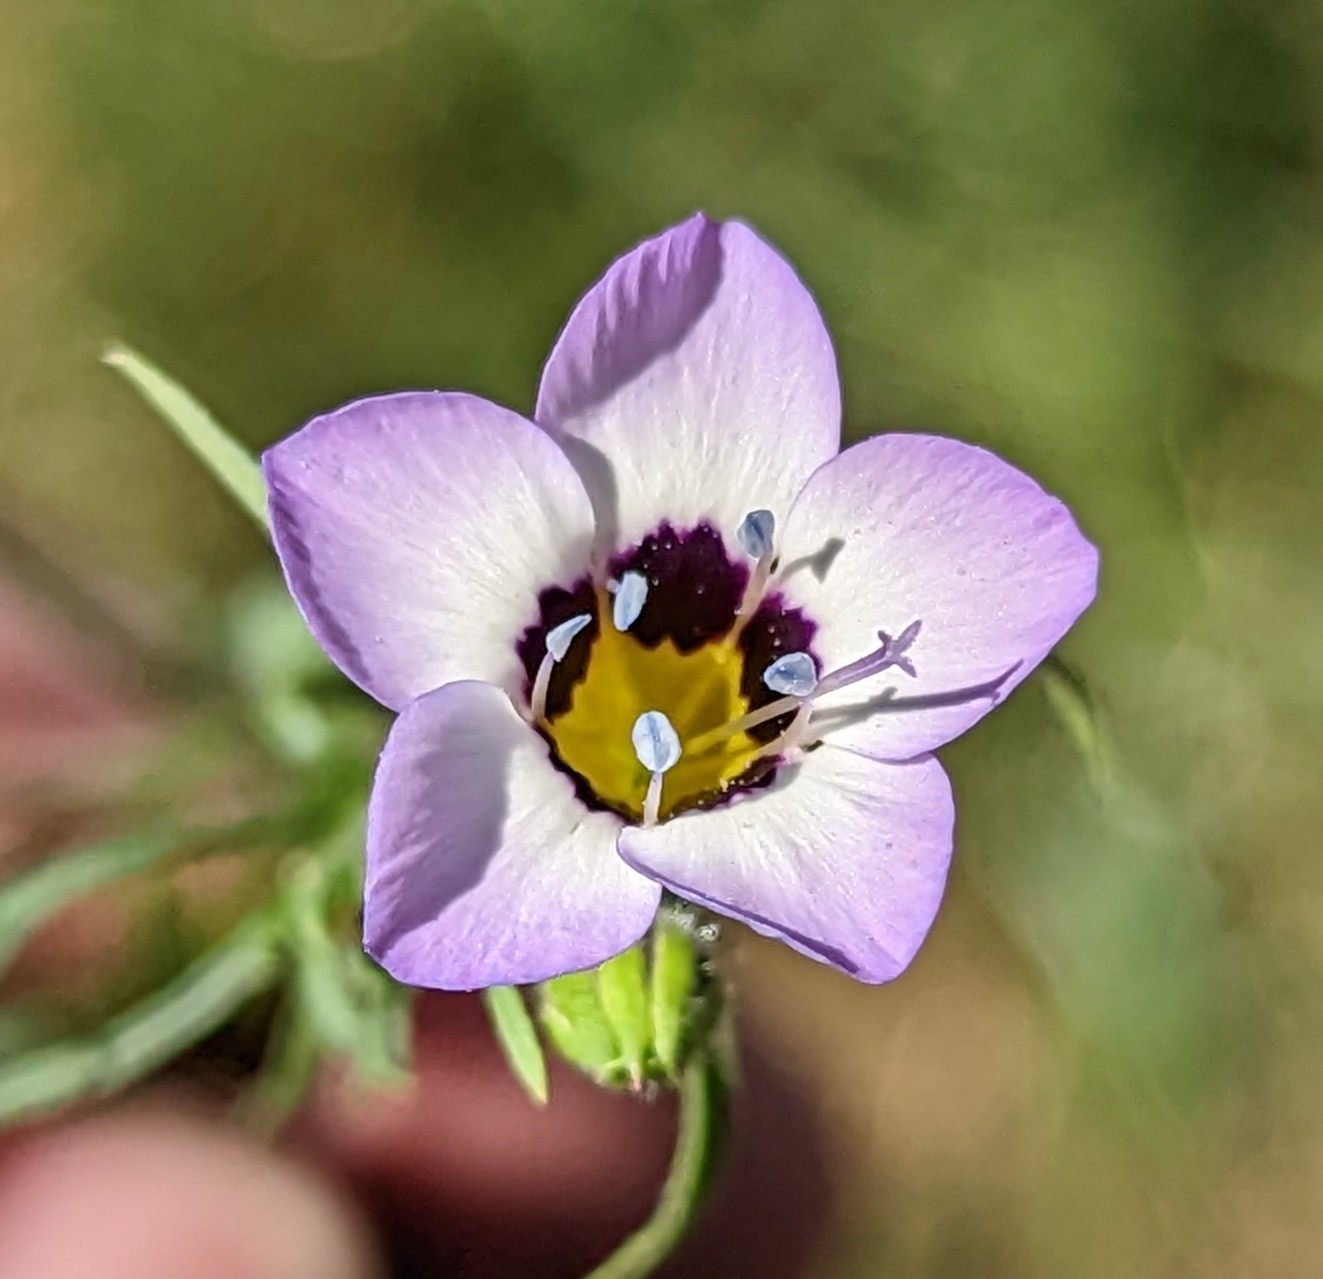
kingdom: Plantae
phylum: Tracheophyta
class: Magnoliopsida
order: Ericales
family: Polemoniaceae
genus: Gilia
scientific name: Gilia tricolor
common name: Bird's-eyes
